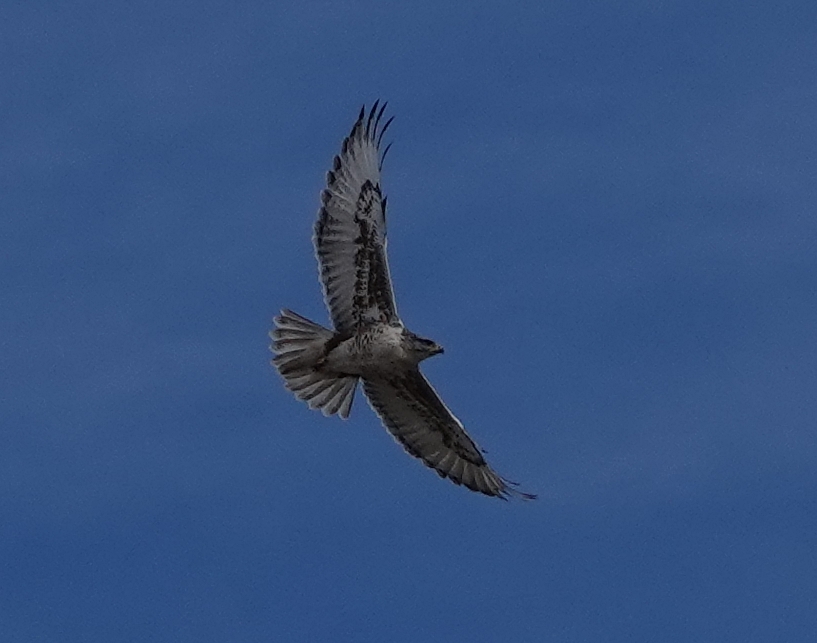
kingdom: Animalia
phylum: Chordata
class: Aves
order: Accipitriformes
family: Accipitridae
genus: Buteo
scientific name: Buteo regalis
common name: Ferruginous hawk
